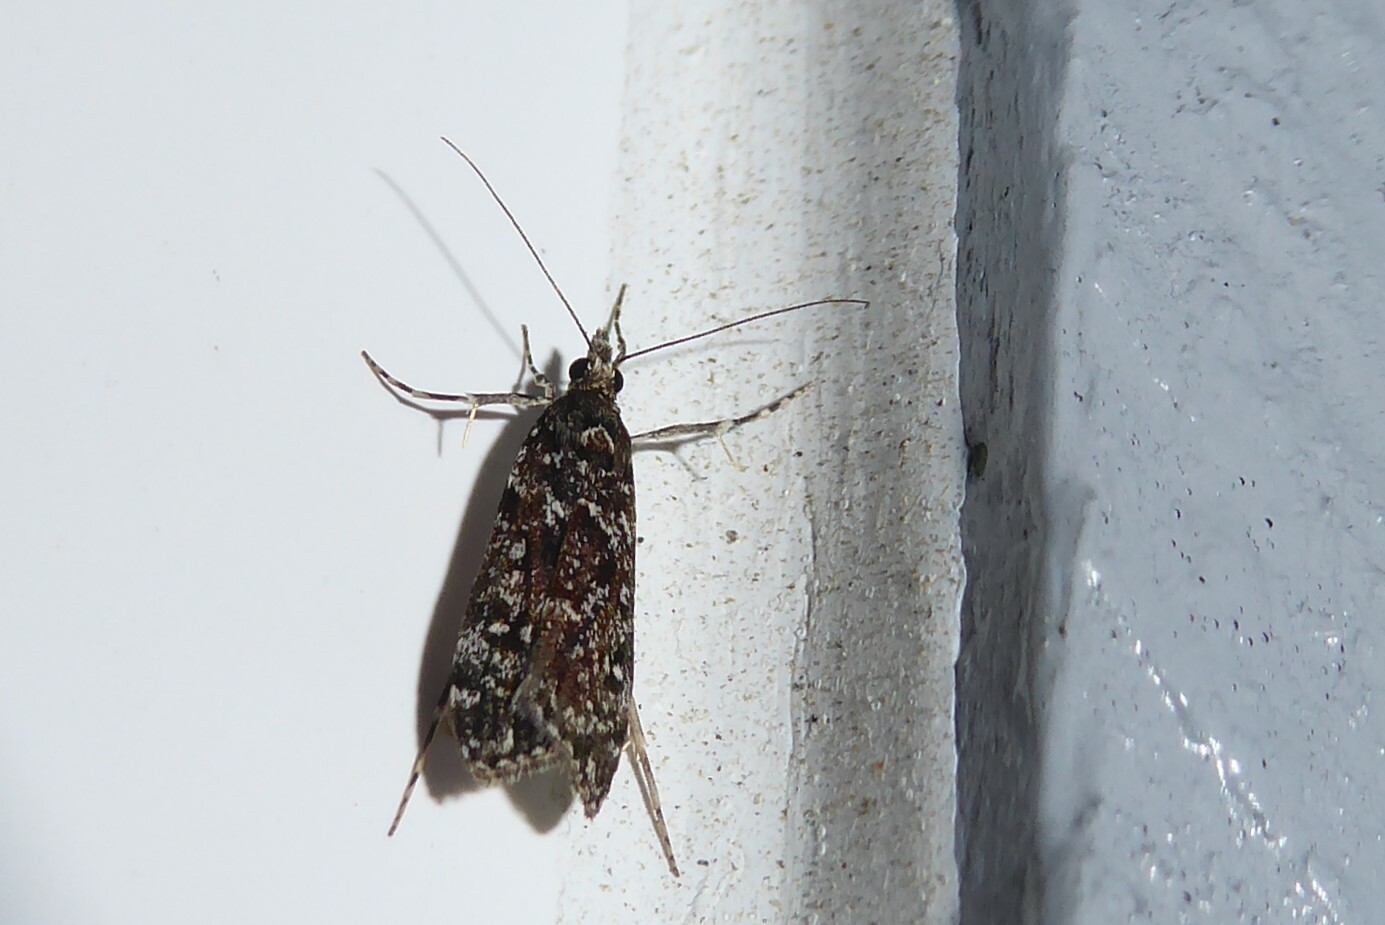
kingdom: Animalia
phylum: Arthropoda
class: Insecta
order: Lepidoptera
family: Crambidae
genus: Eudonia
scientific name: Eudonia philerga
